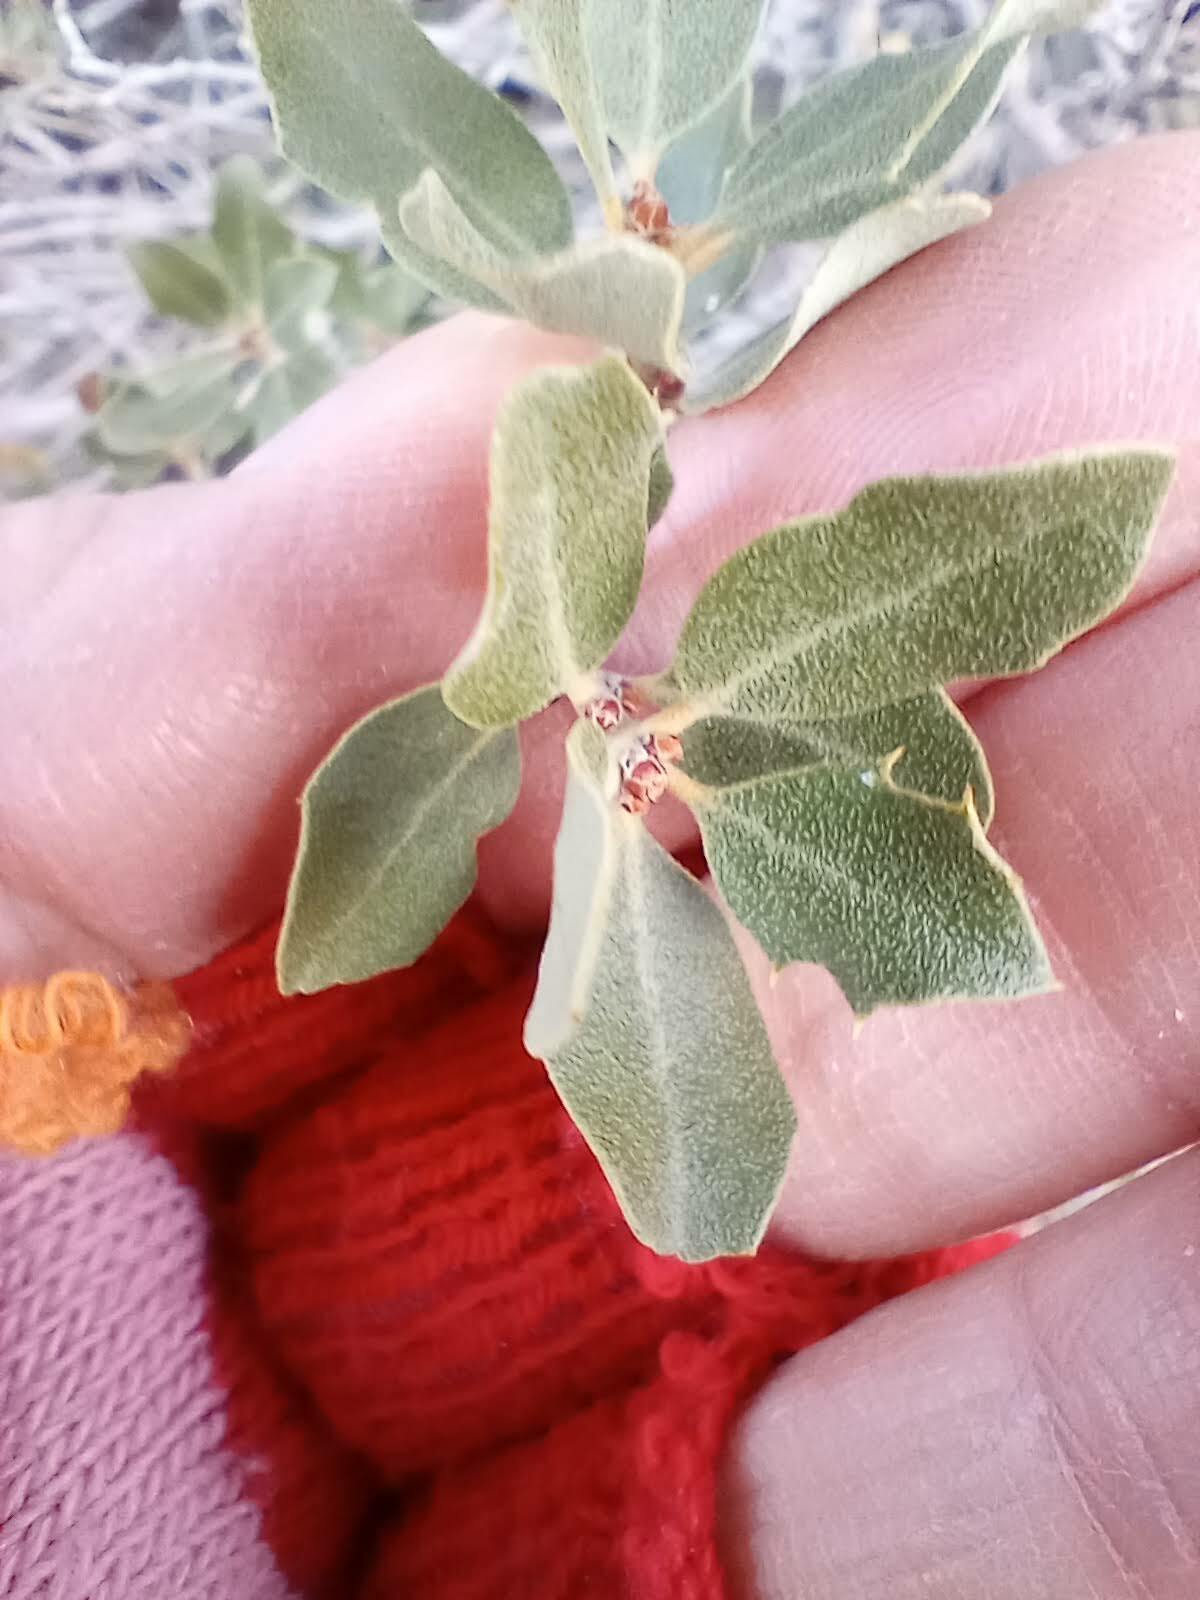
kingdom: Plantae
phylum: Tracheophyta
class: Magnoliopsida
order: Fagales
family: Fagaceae
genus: Quercus
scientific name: Quercus cornelius-mulleri
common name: Muller oak
